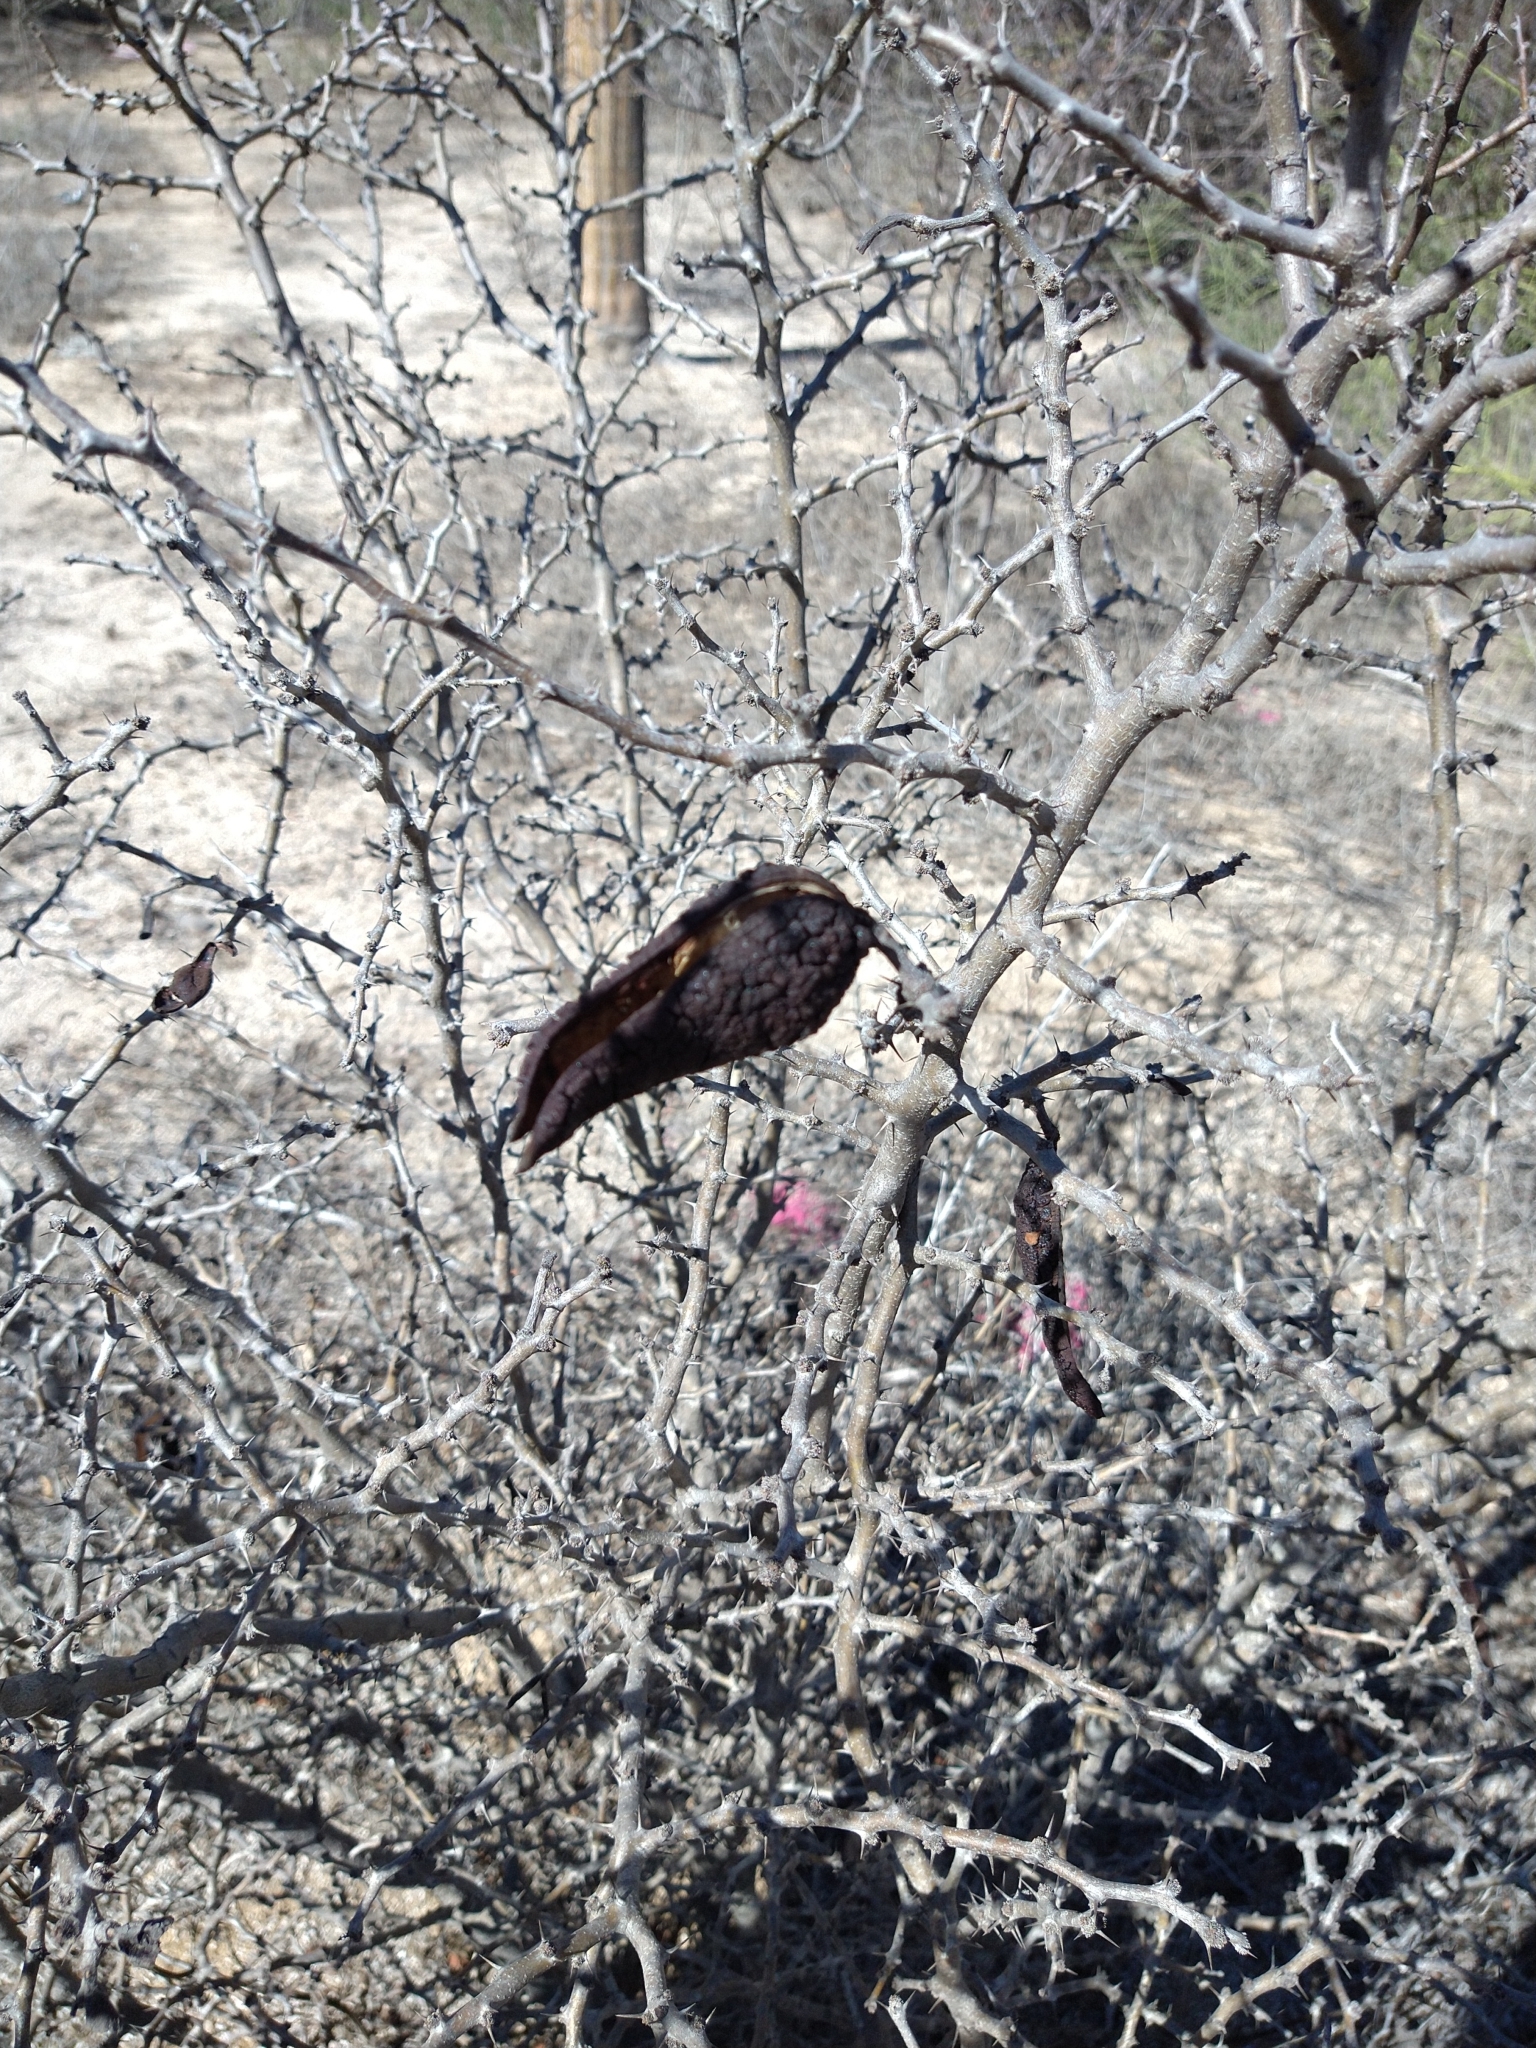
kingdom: Plantae
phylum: Tracheophyta
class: Magnoliopsida
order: Fabales
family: Fabaceae
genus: Ebenopsis
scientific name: Ebenopsis confinis
